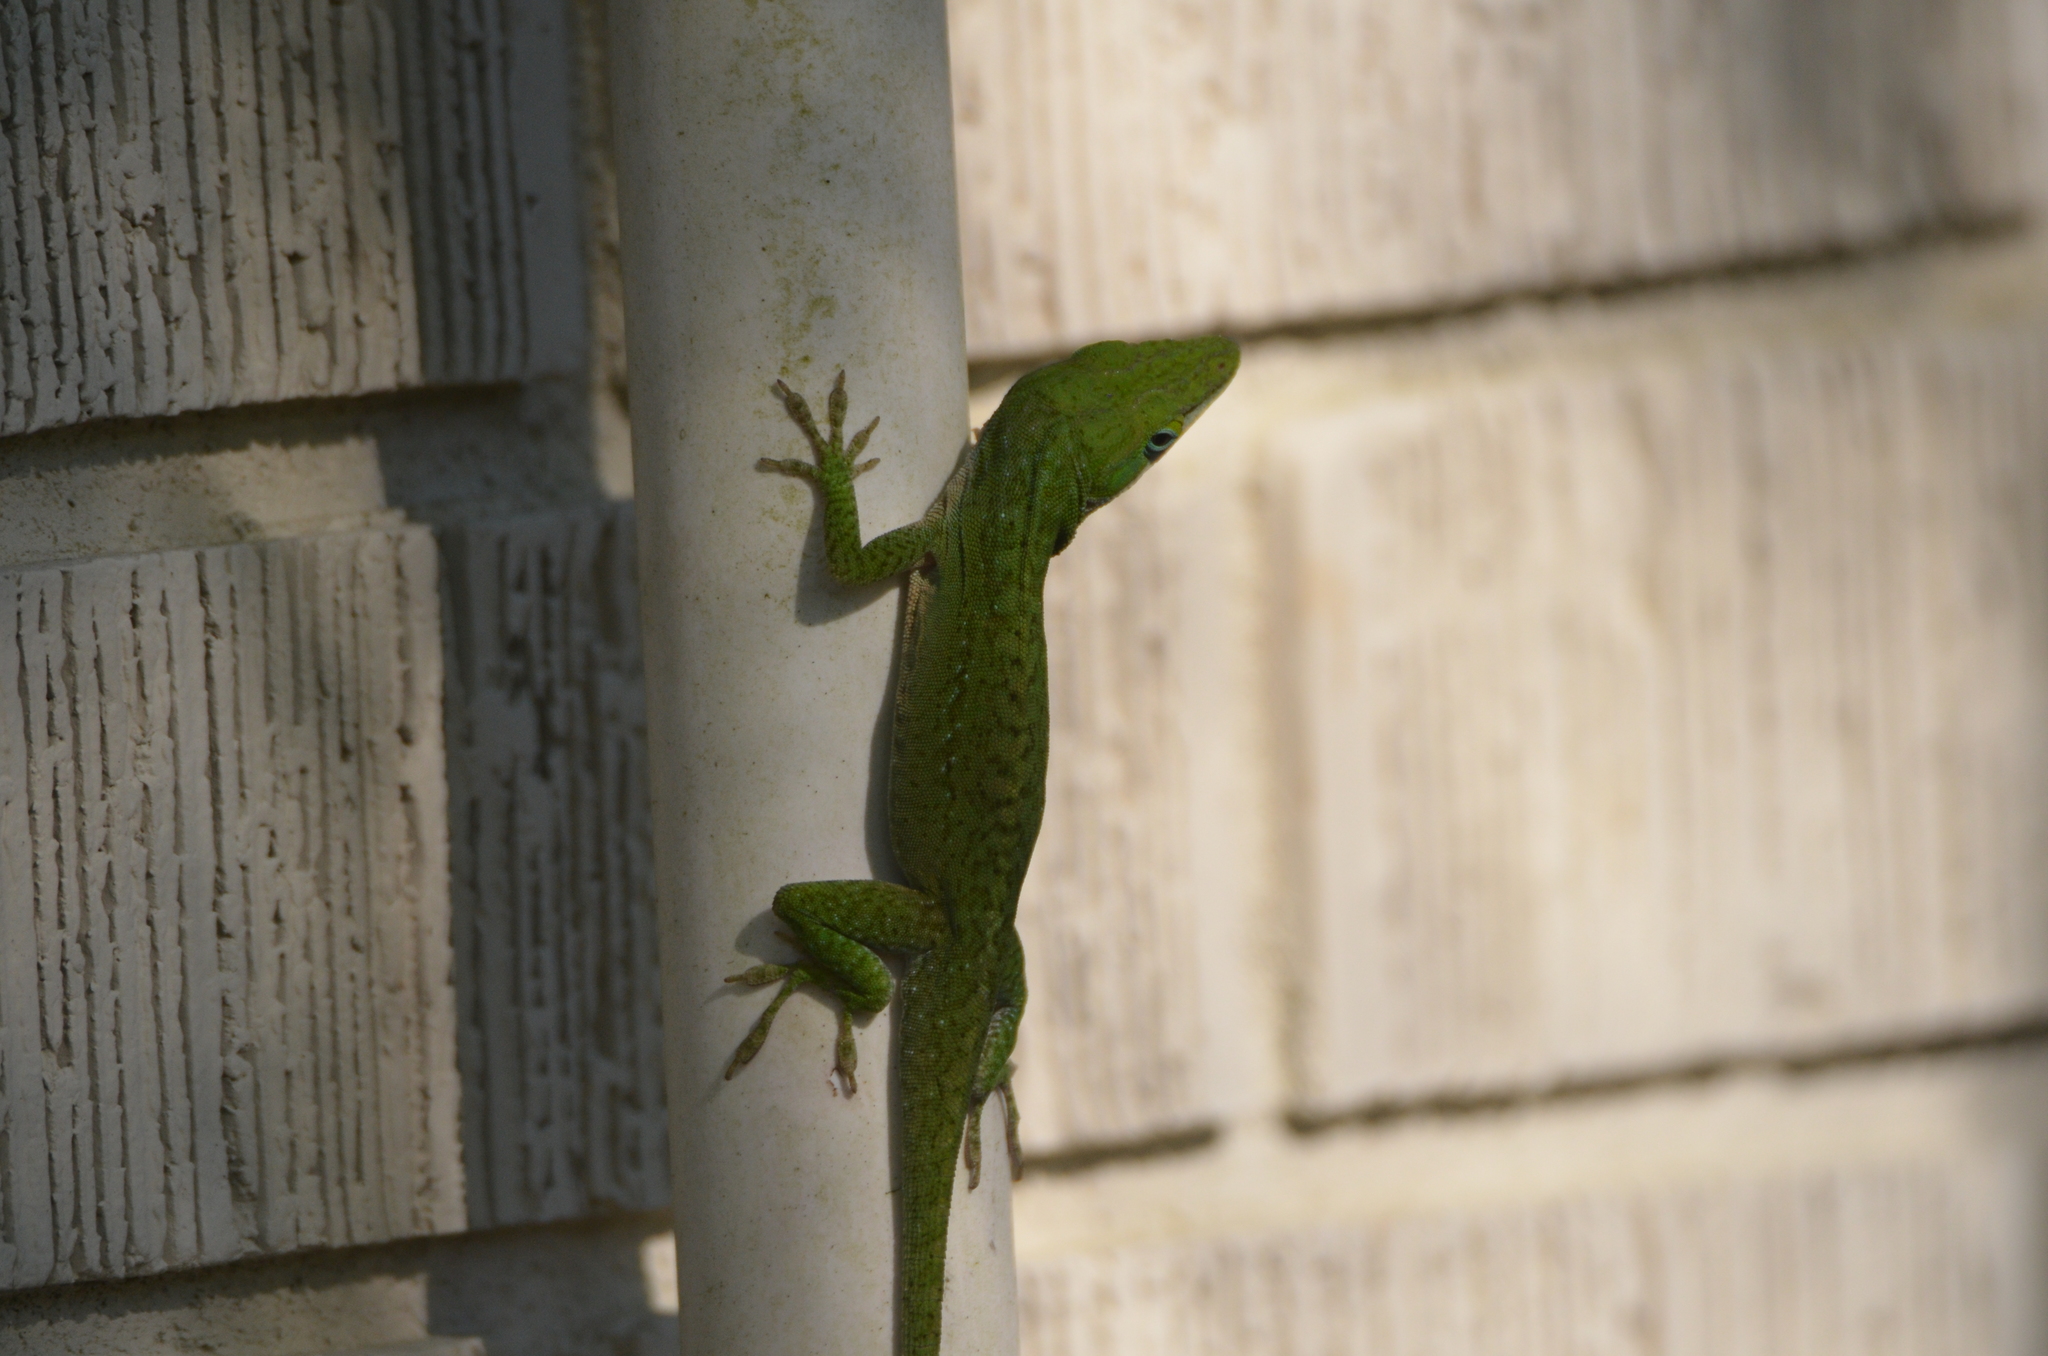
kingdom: Animalia
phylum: Chordata
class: Squamata
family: Dactyloidae
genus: Anolis
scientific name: Anolis carolinensis
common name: Green anole
